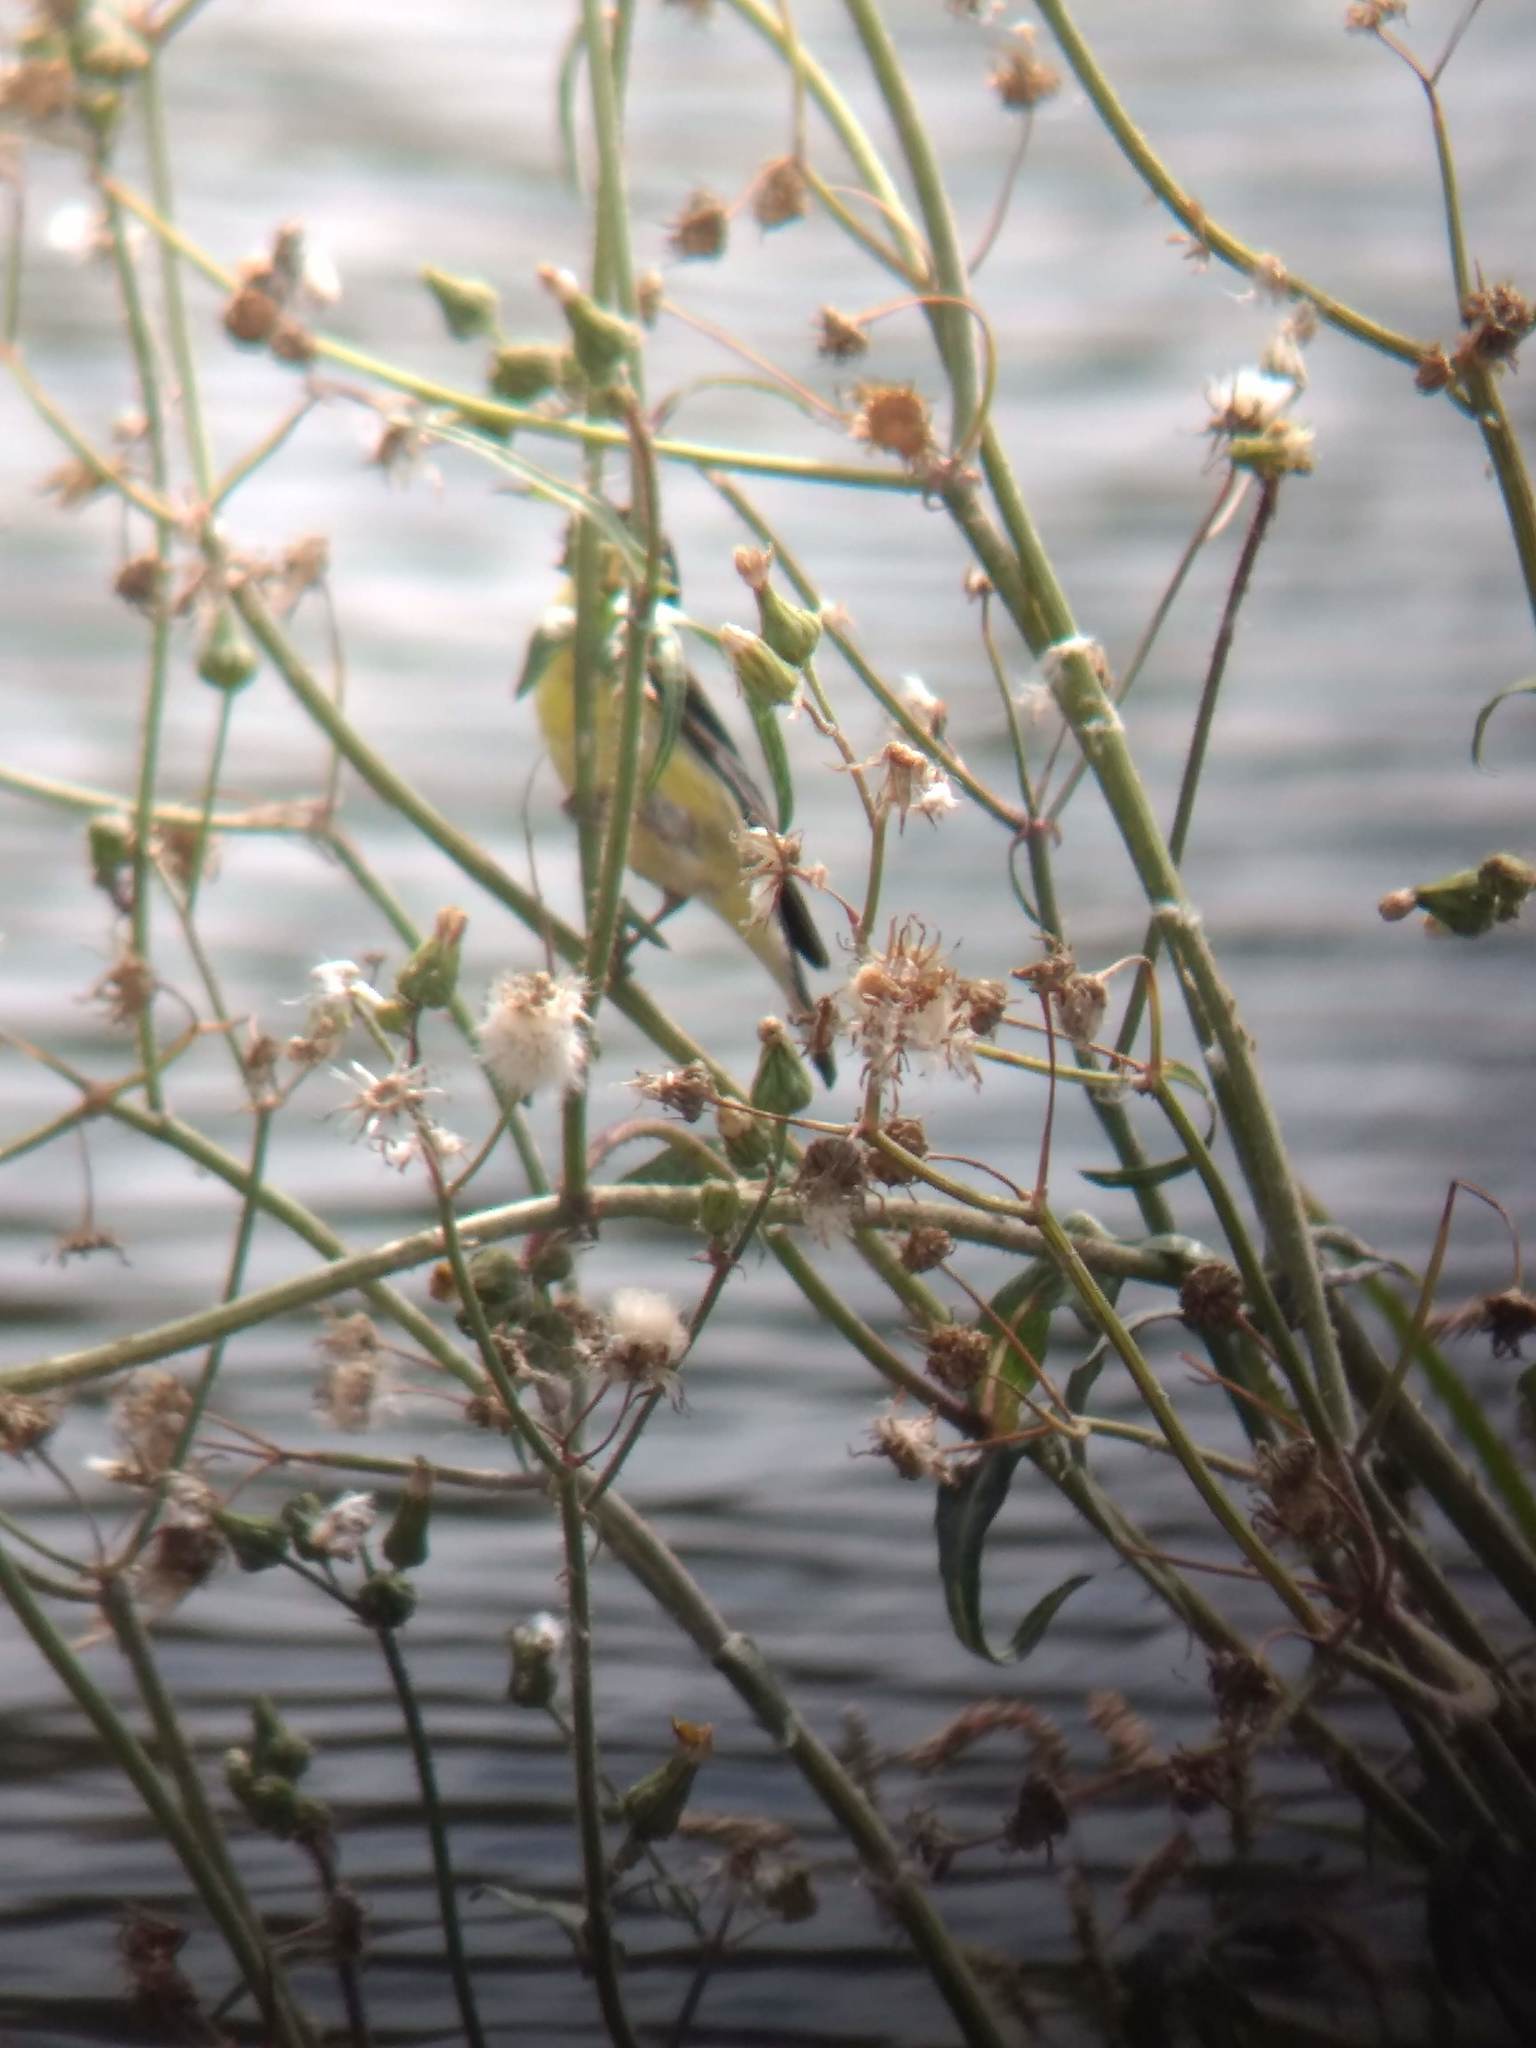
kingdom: Animalia
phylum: Chordata
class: Aves
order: Passeriformes
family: Fringillidae
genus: Spinus
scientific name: Spinus psaltria
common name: Lesser goldfinch
